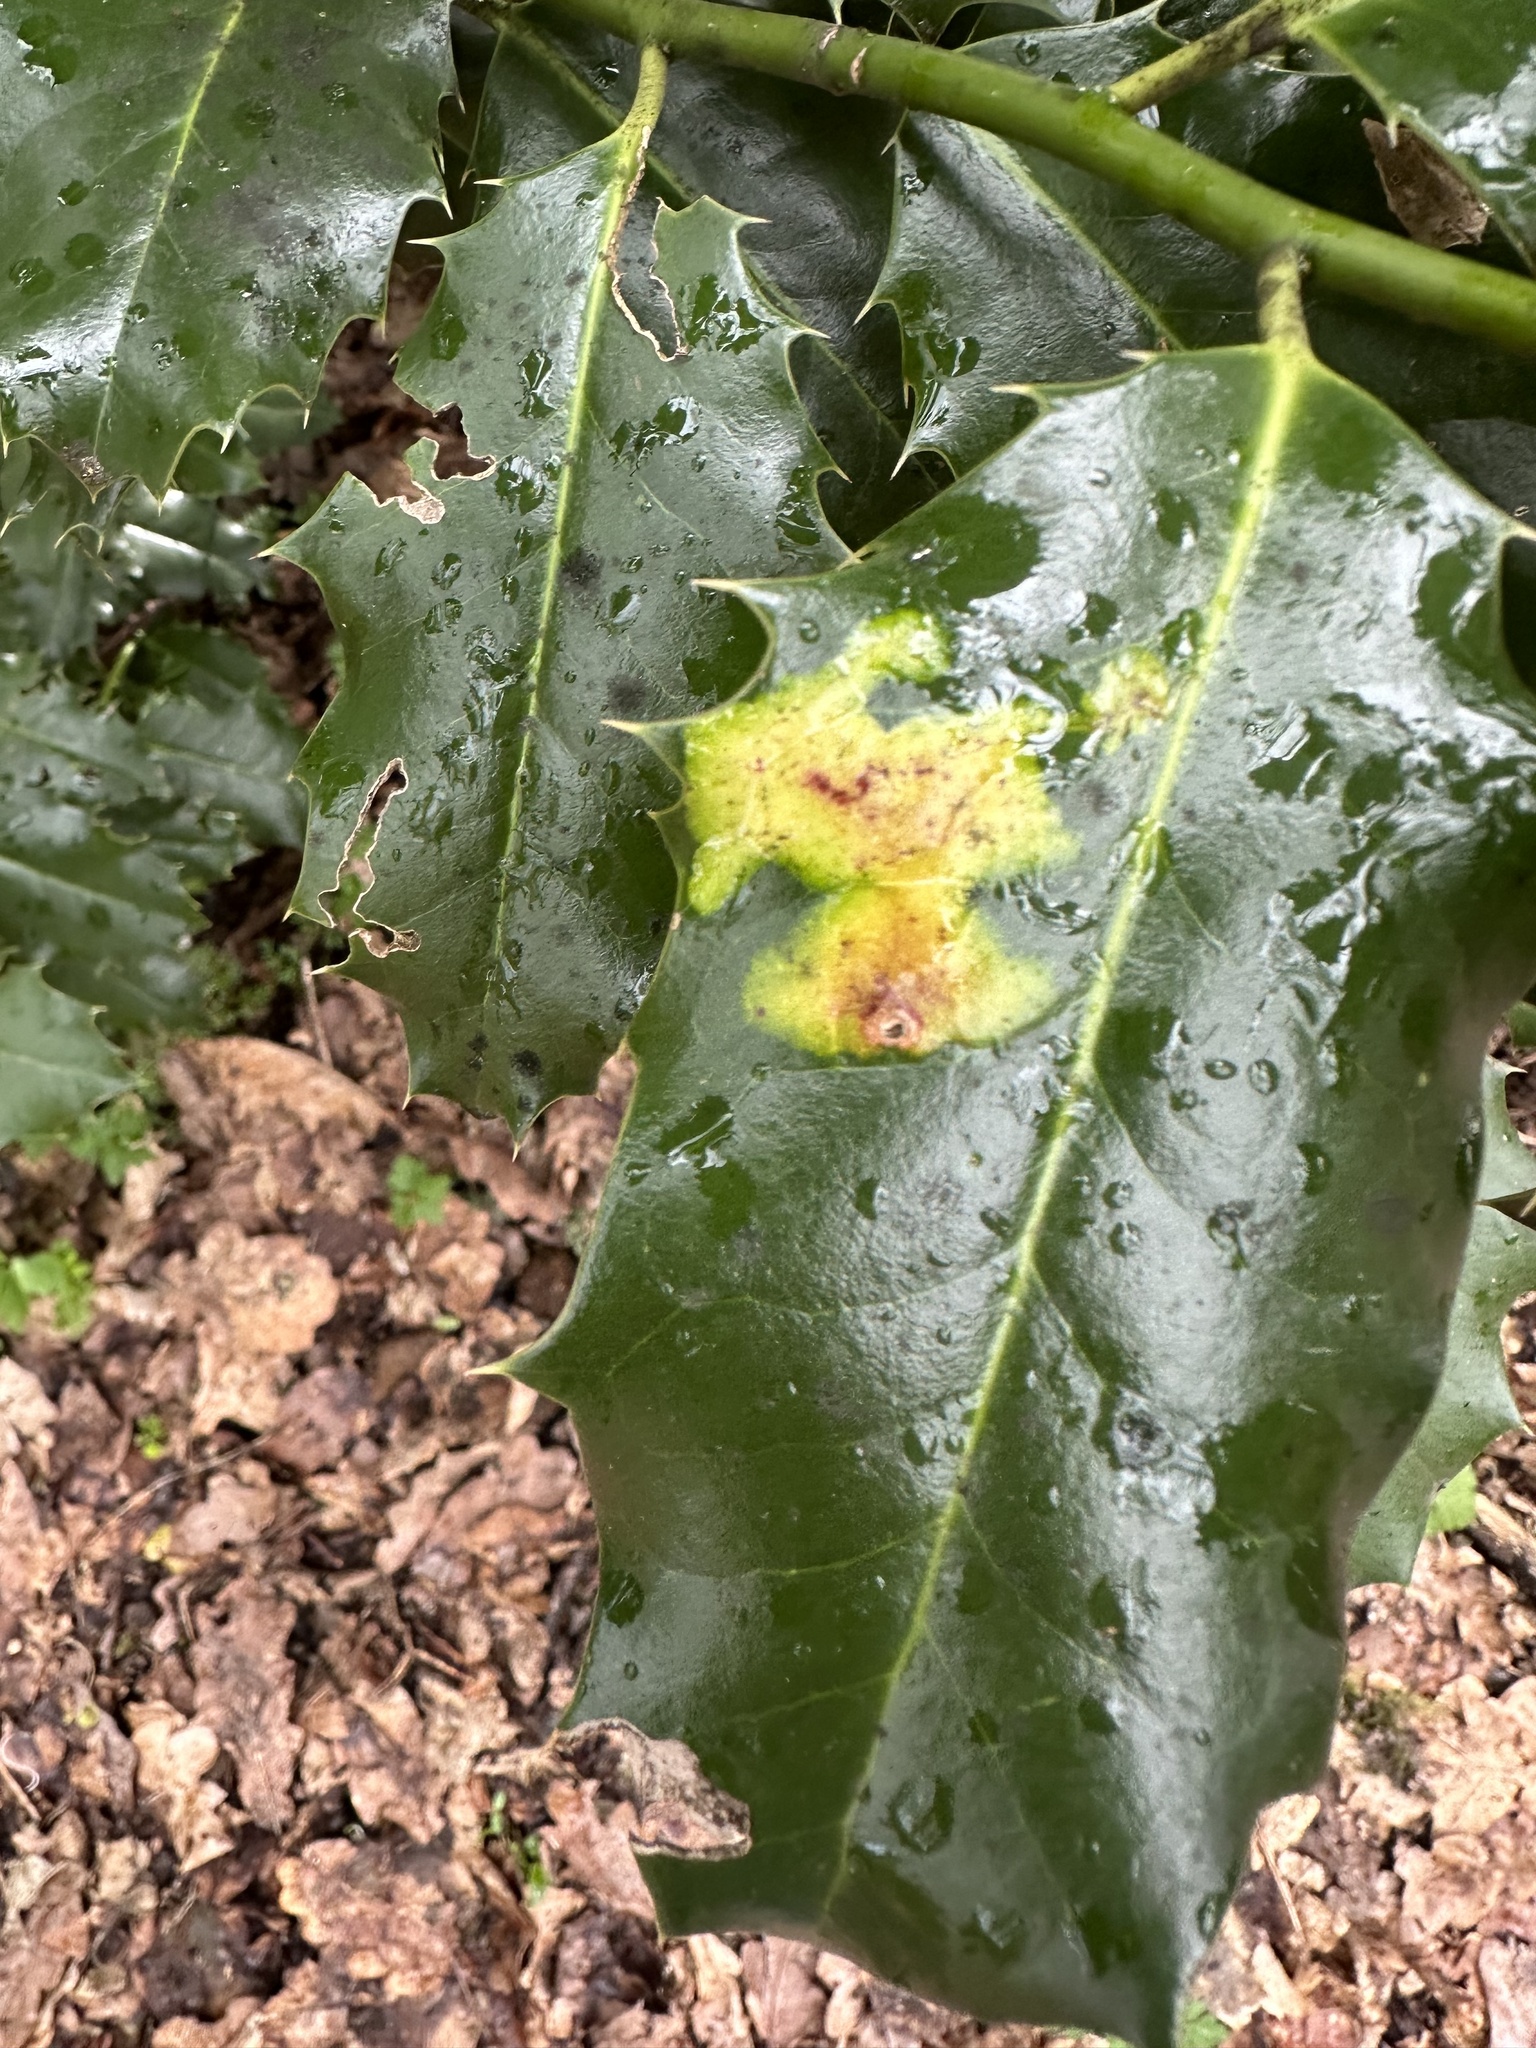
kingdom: Plantae
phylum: Tracheophyta
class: Magnoliopsida
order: Aquifoliales
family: Aquifoliaceae
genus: Ilex
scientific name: Ilex aquifolium
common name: English holly
